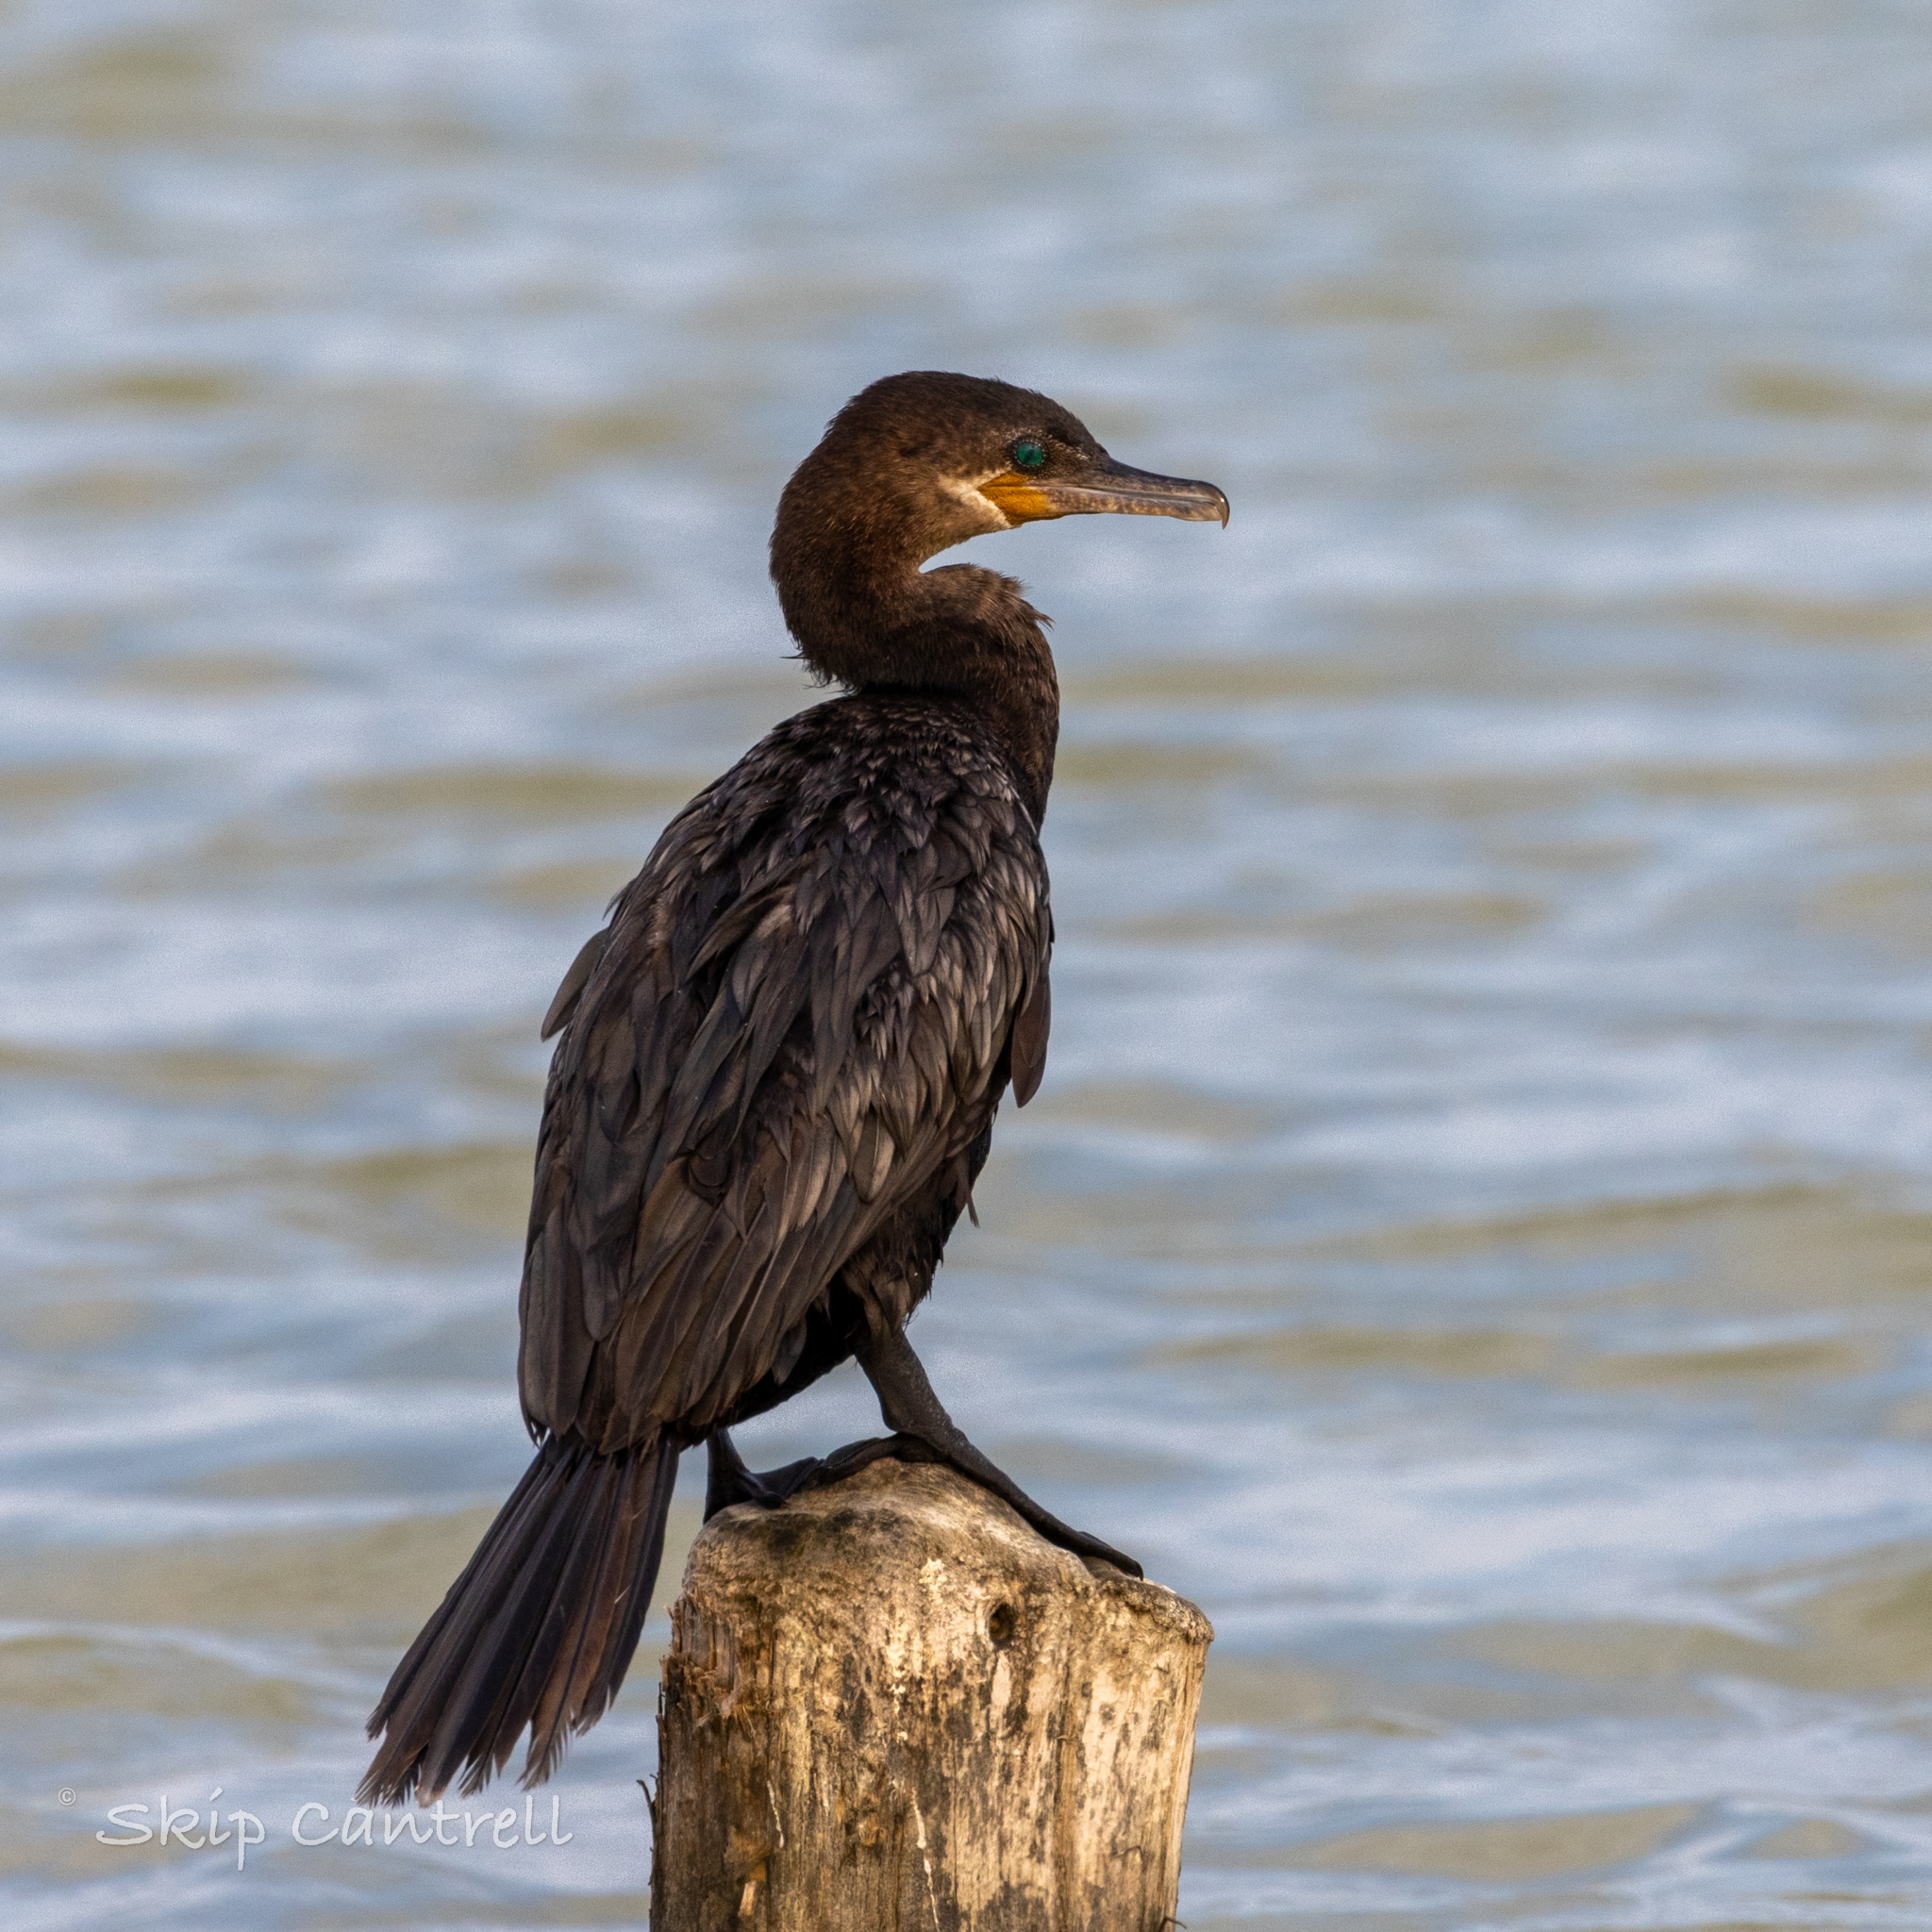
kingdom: Animalia
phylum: Chordata
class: Aves
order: Suliformes
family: Phalacrocoracidae
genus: Phalacrocorax
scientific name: Phalacrocorax brasilianus
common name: Neotropic cormorant
